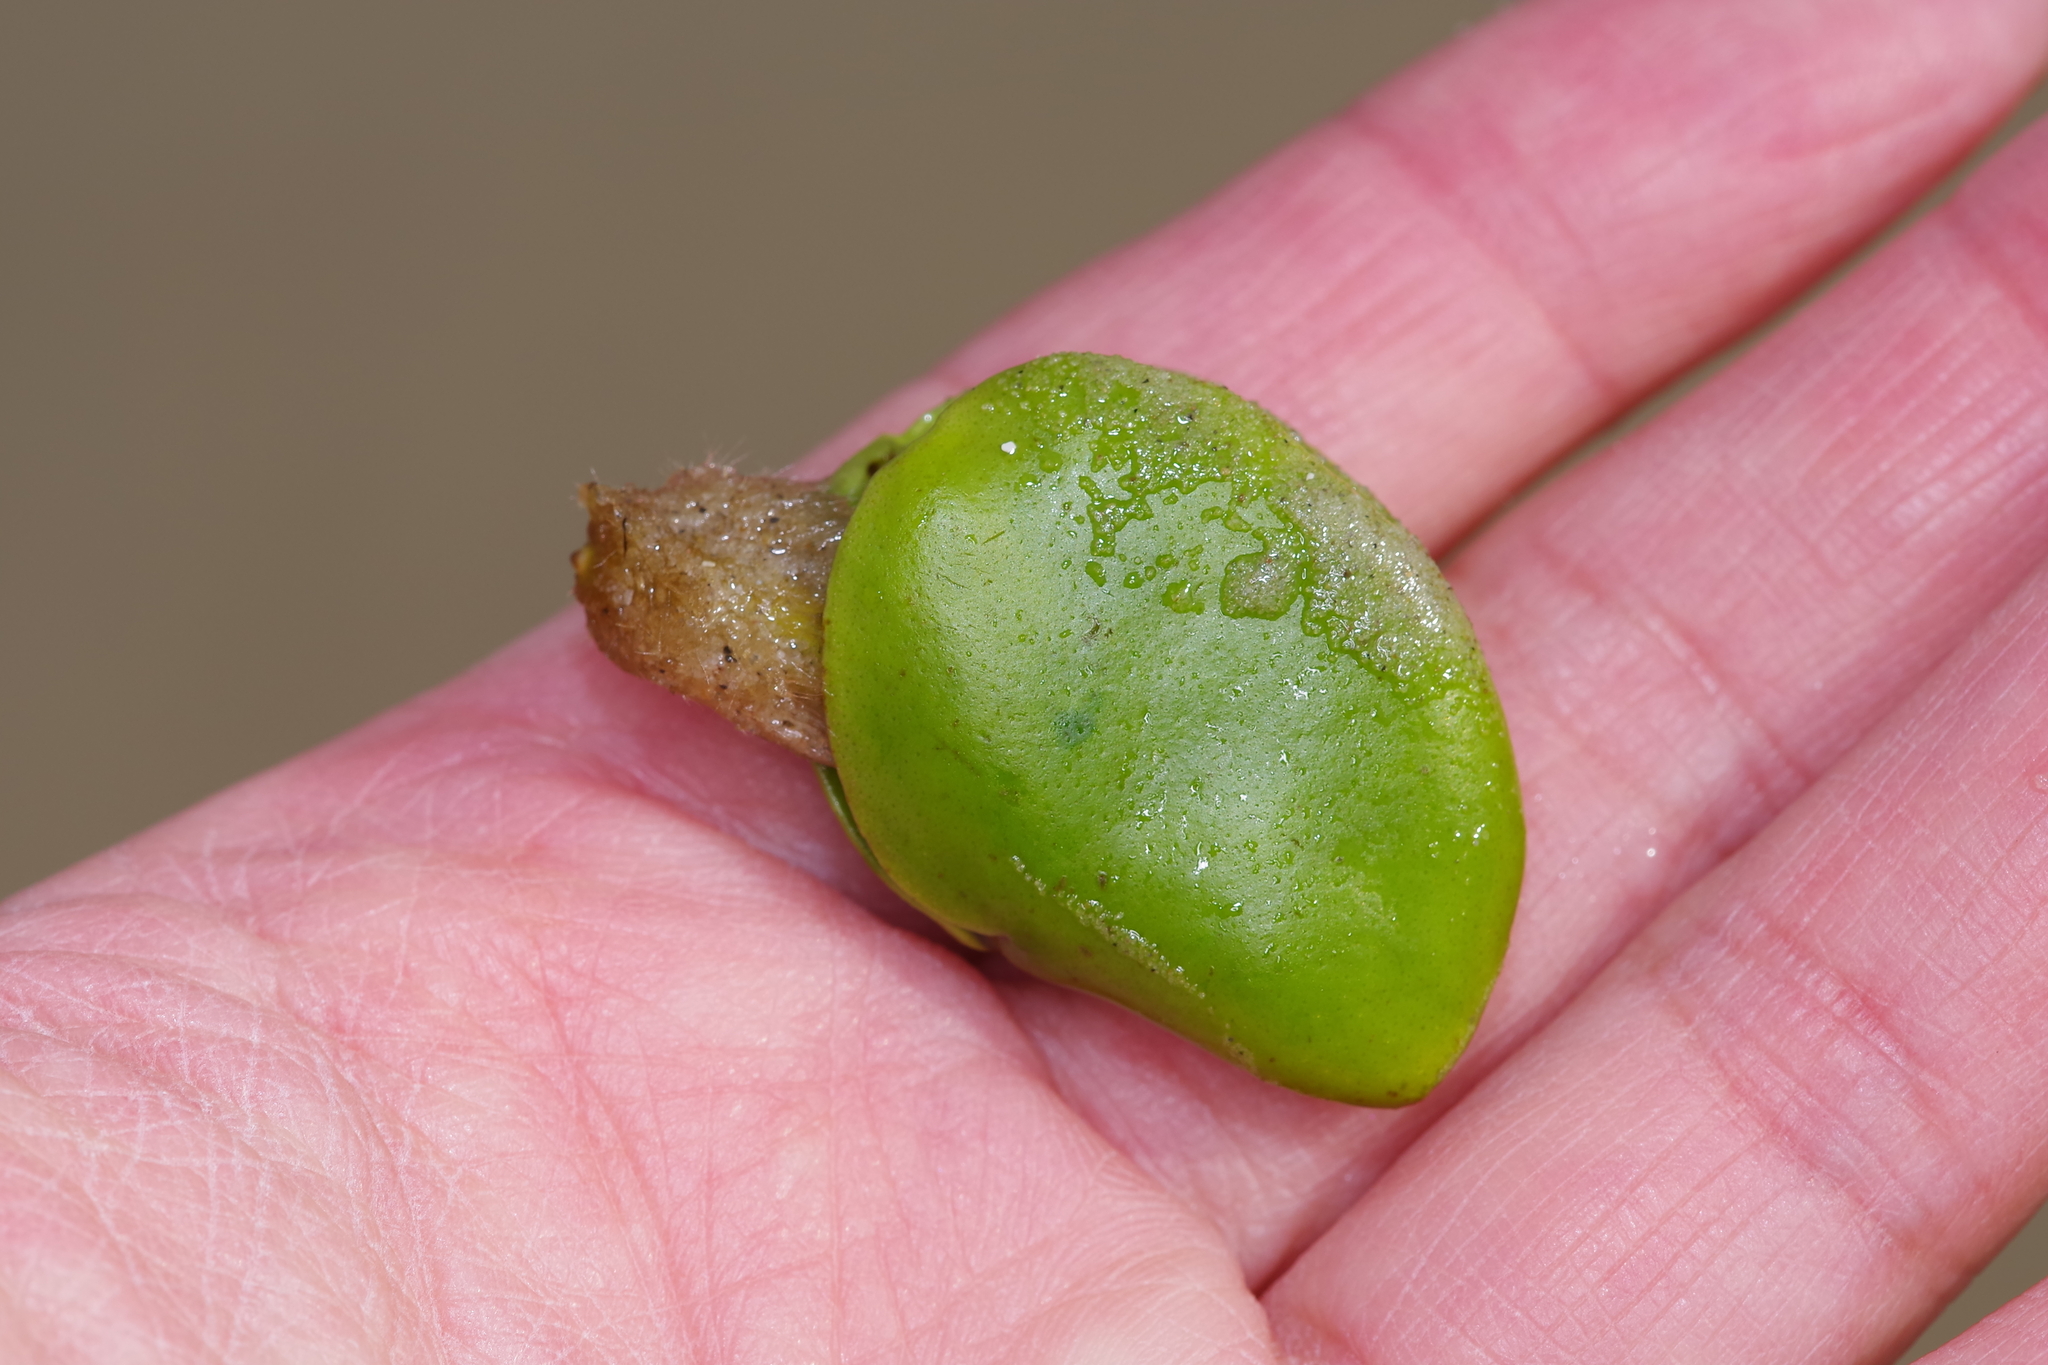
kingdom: Plantae
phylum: Tracheophyta
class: Magnoliopsida
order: Lamiales
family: Acanthaceae
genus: Avicennia
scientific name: Avicennia germinans
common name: Black mangrove
